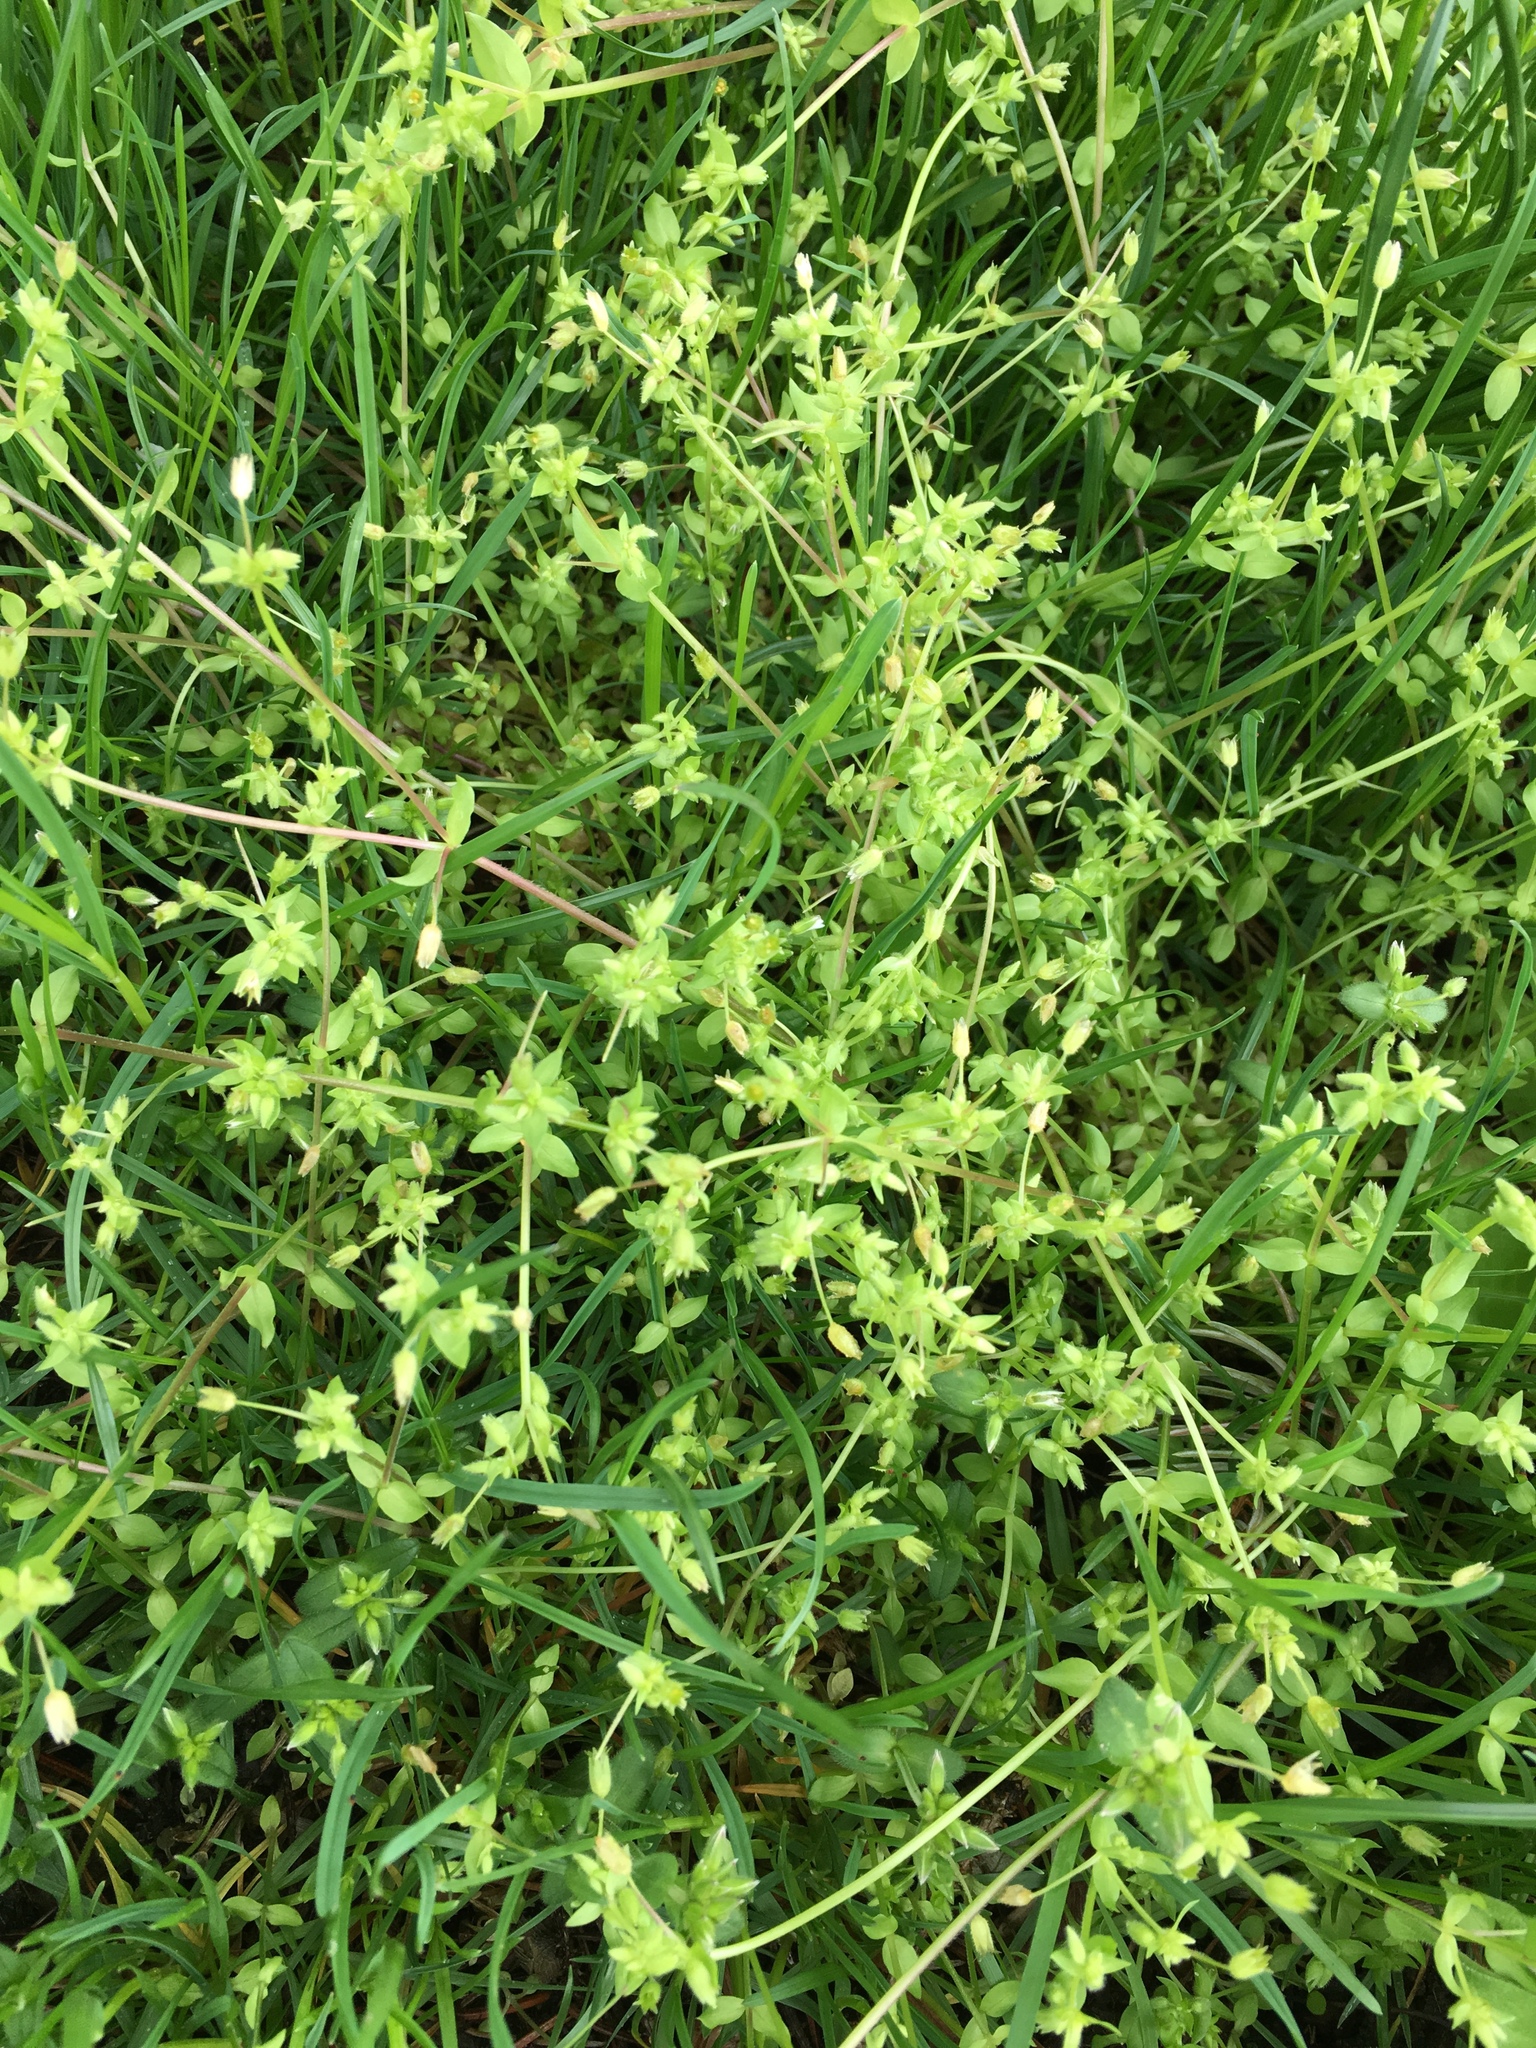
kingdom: Plantae
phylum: Tracheophyta
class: Magnoliopsida
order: Caryophyllales
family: Caryophyllaceae
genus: Stellaria
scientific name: Stellaria media
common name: Common chickweed
